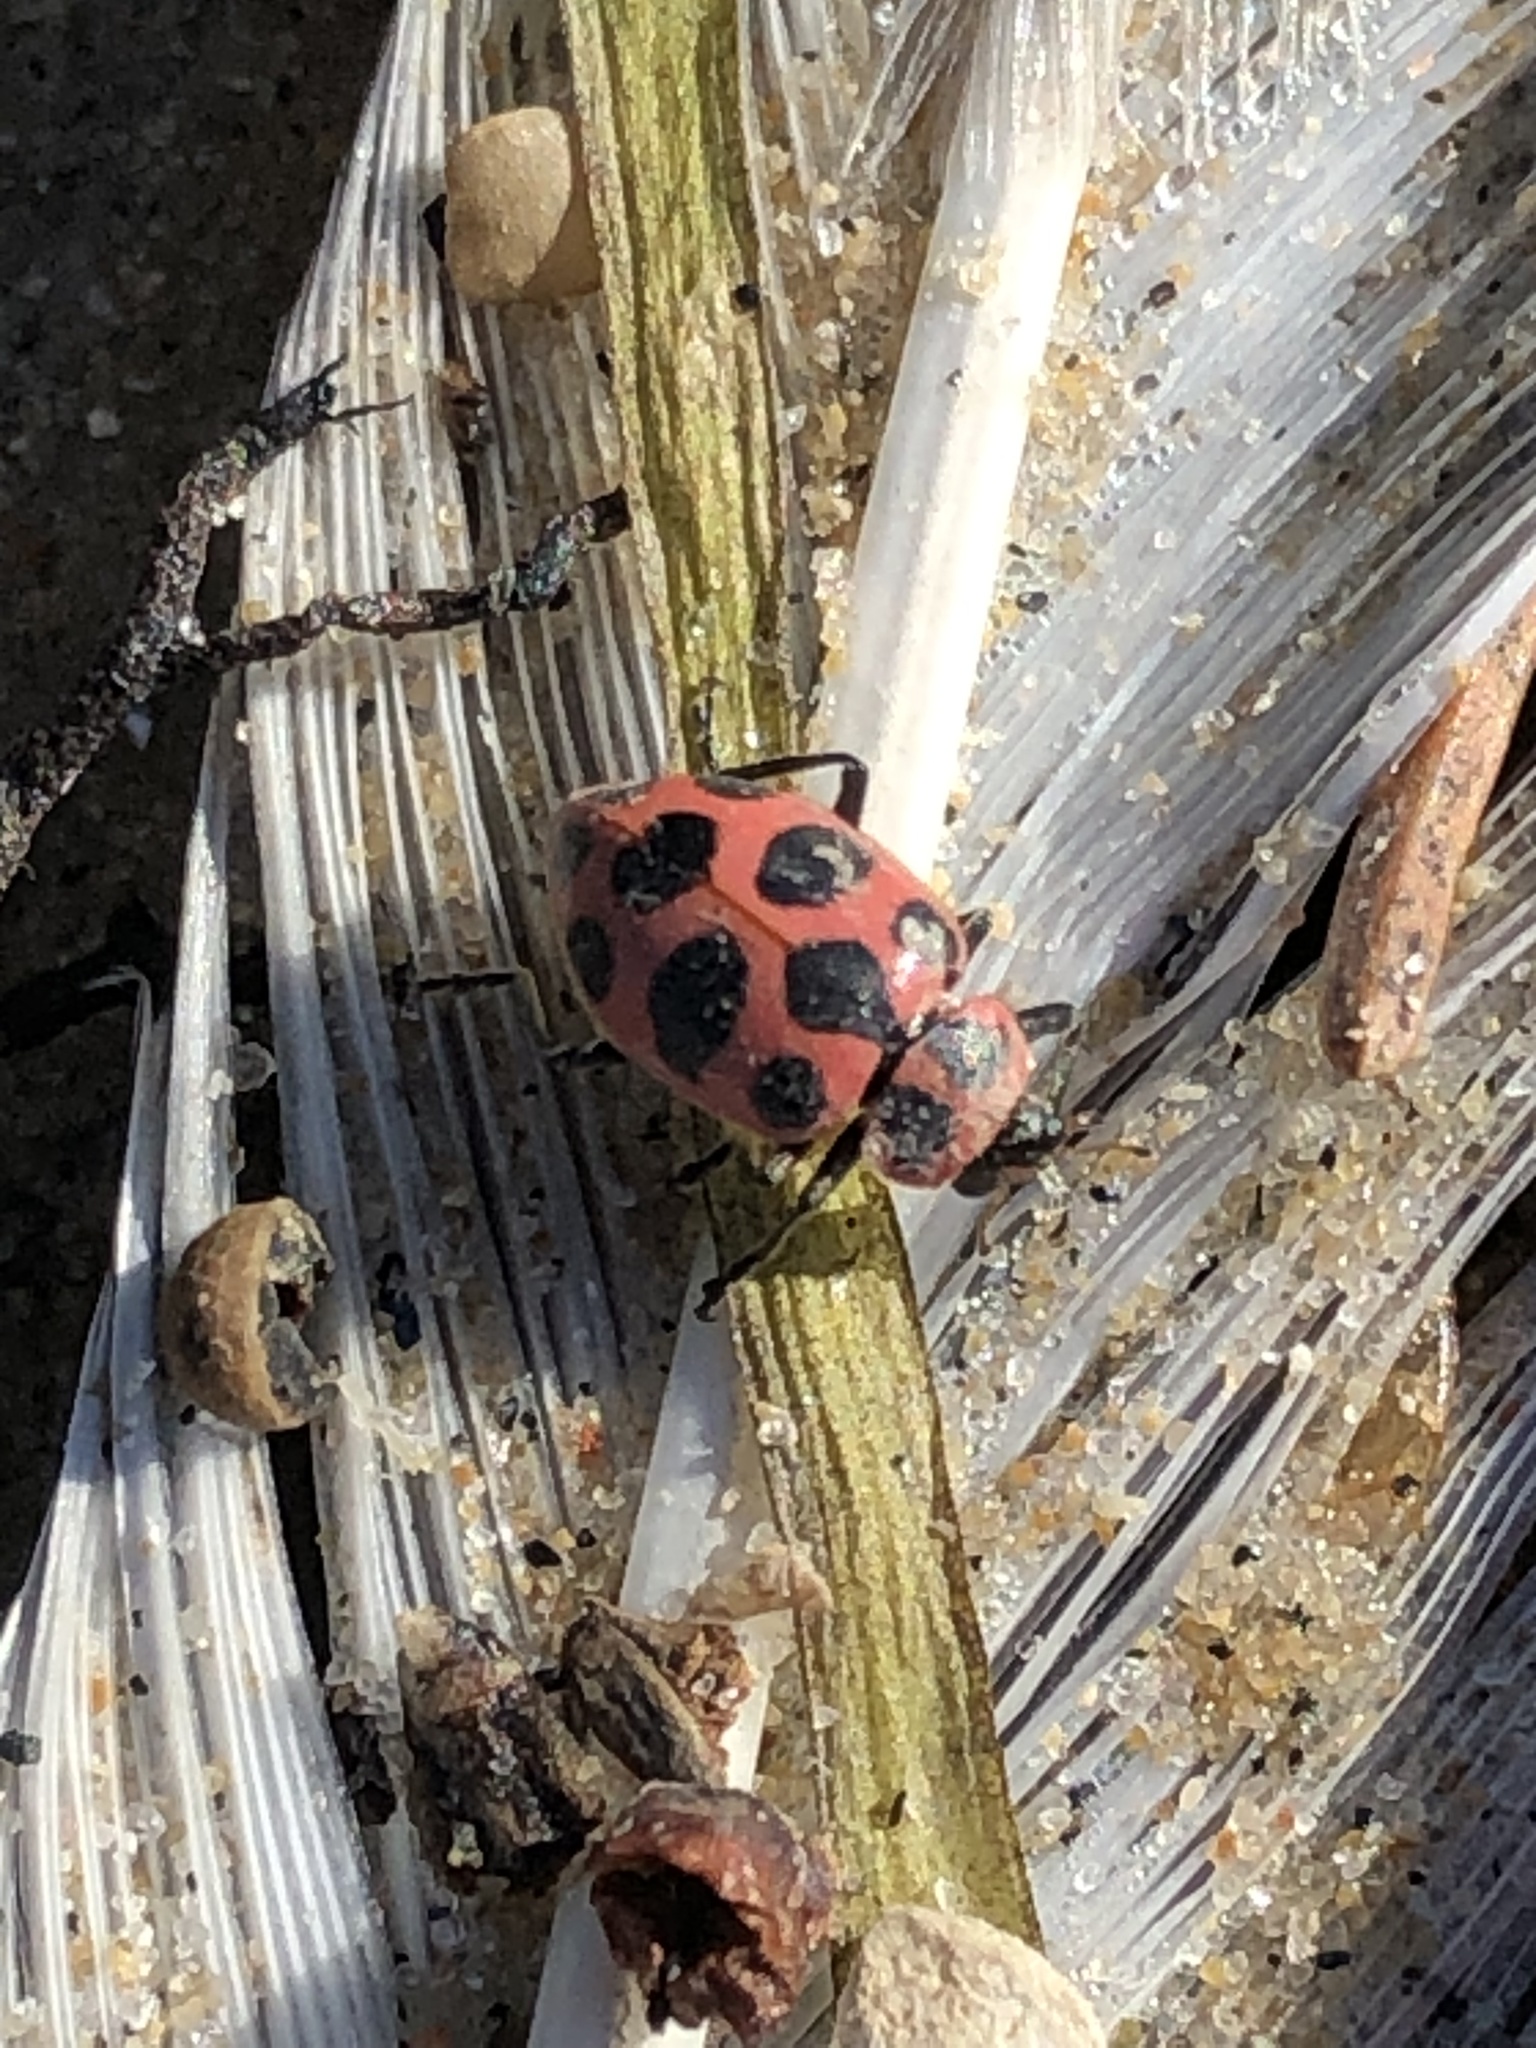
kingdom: Animalia
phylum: Arthropoda
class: Insecta
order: Coleoptera
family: Coccinellidae
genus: Coleomegilla
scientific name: Coleomegilla maculata
